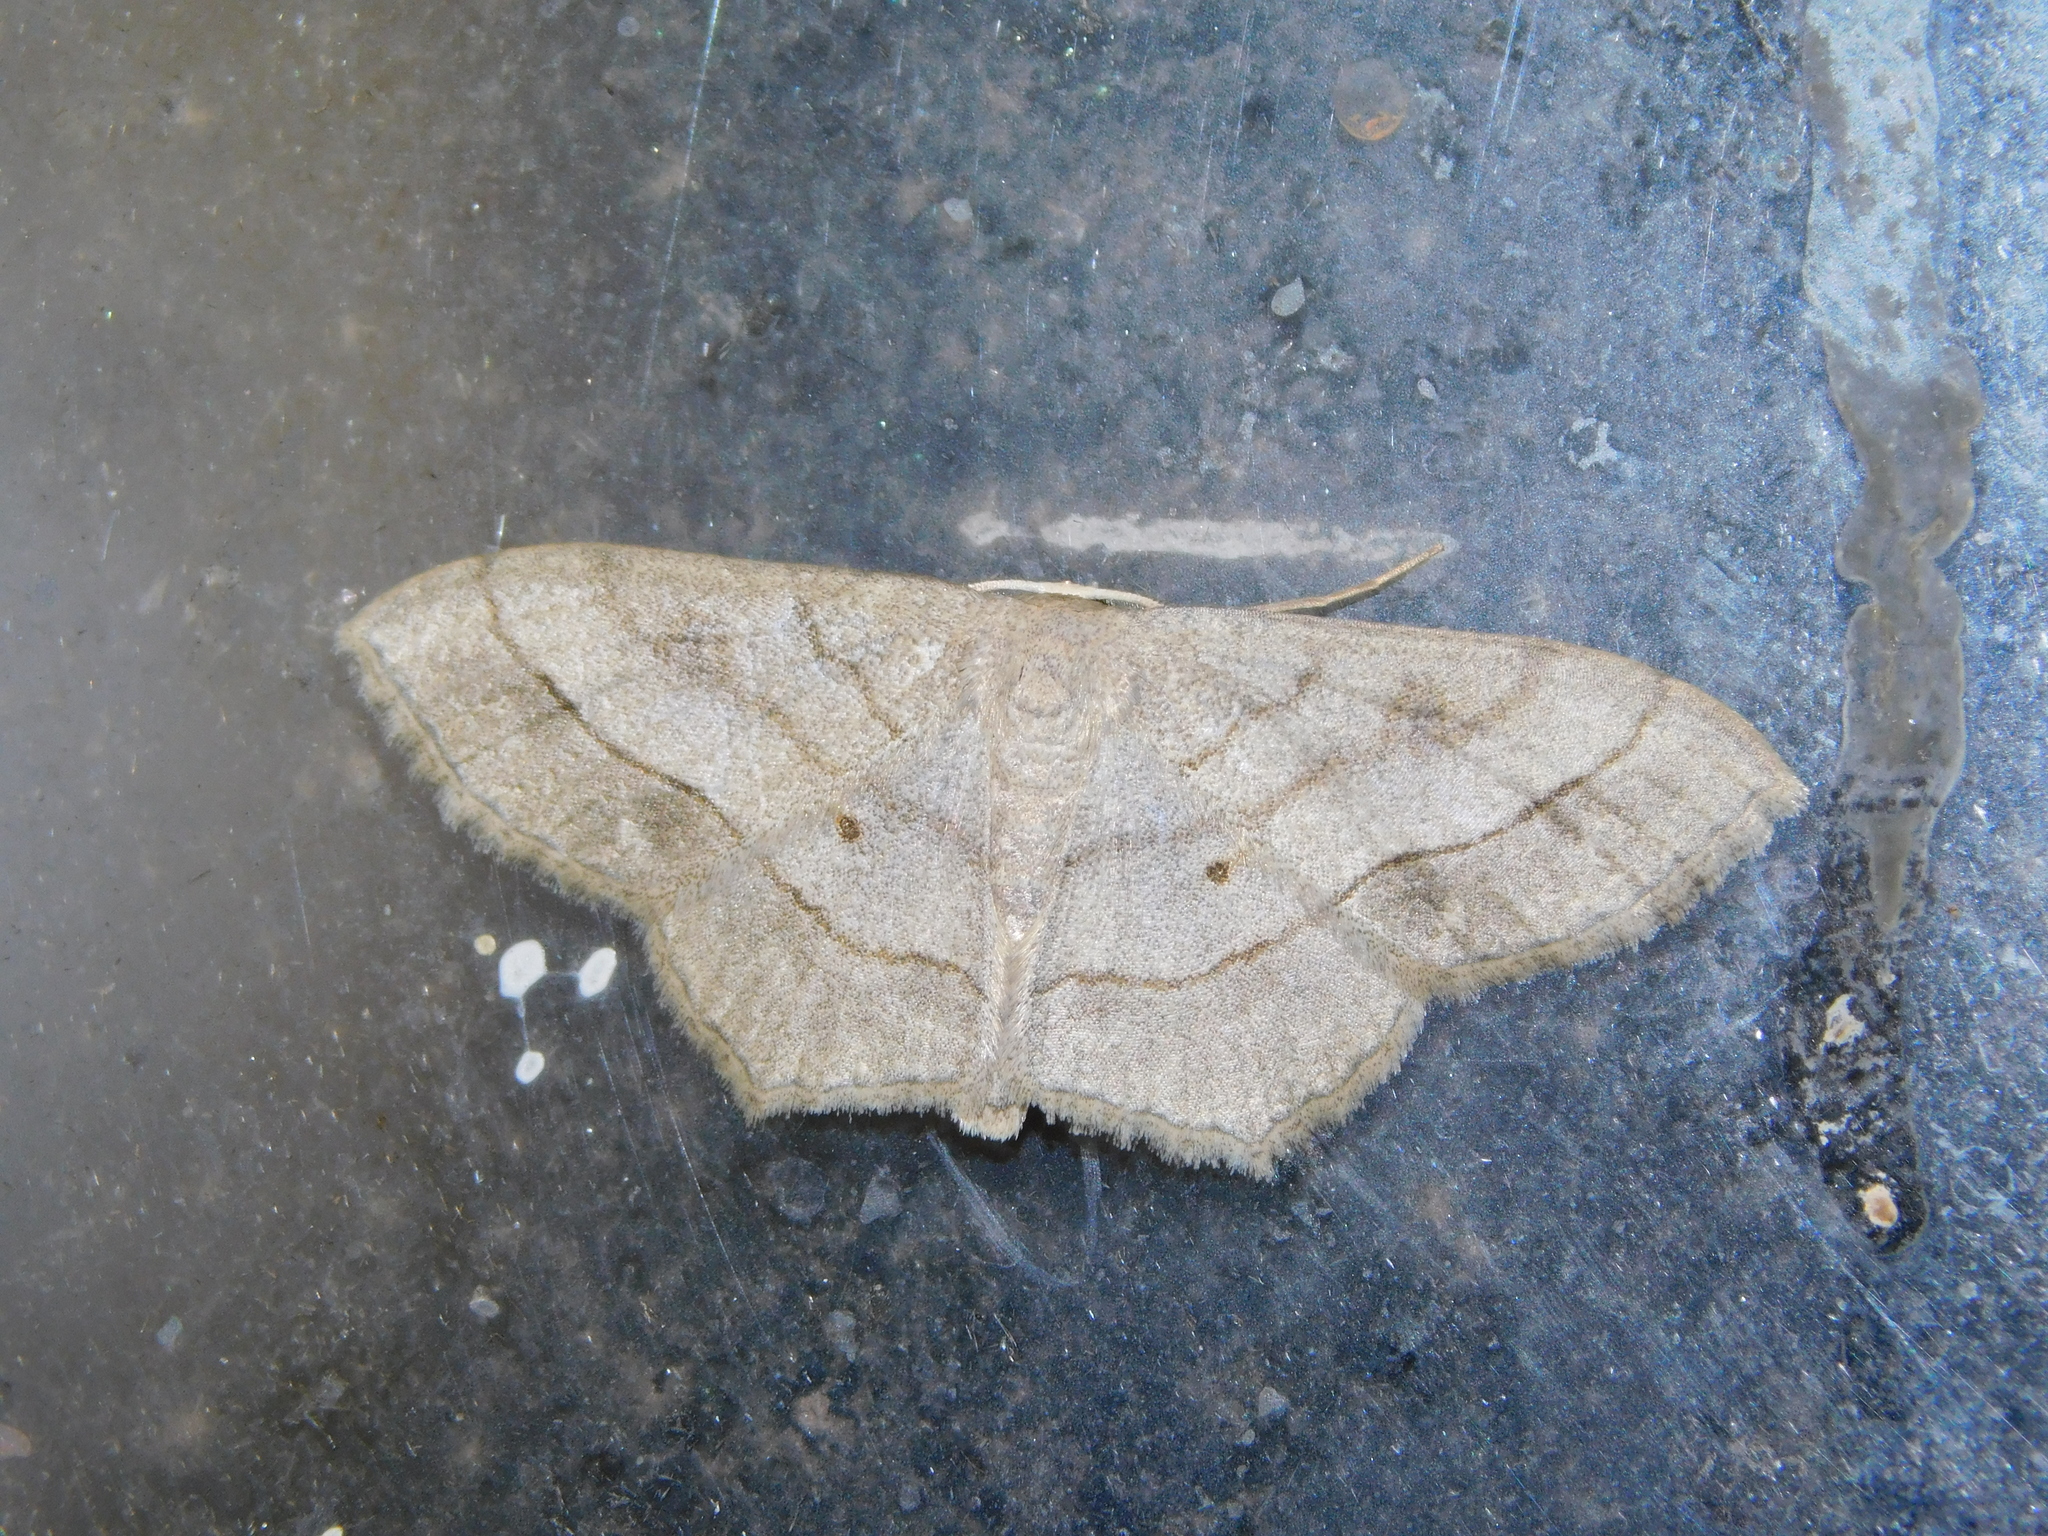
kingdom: Animalia
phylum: Arthropoda
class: Insecta
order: Lepidoptera
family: Geometridae
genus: Scopula
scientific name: Scopula modesta
